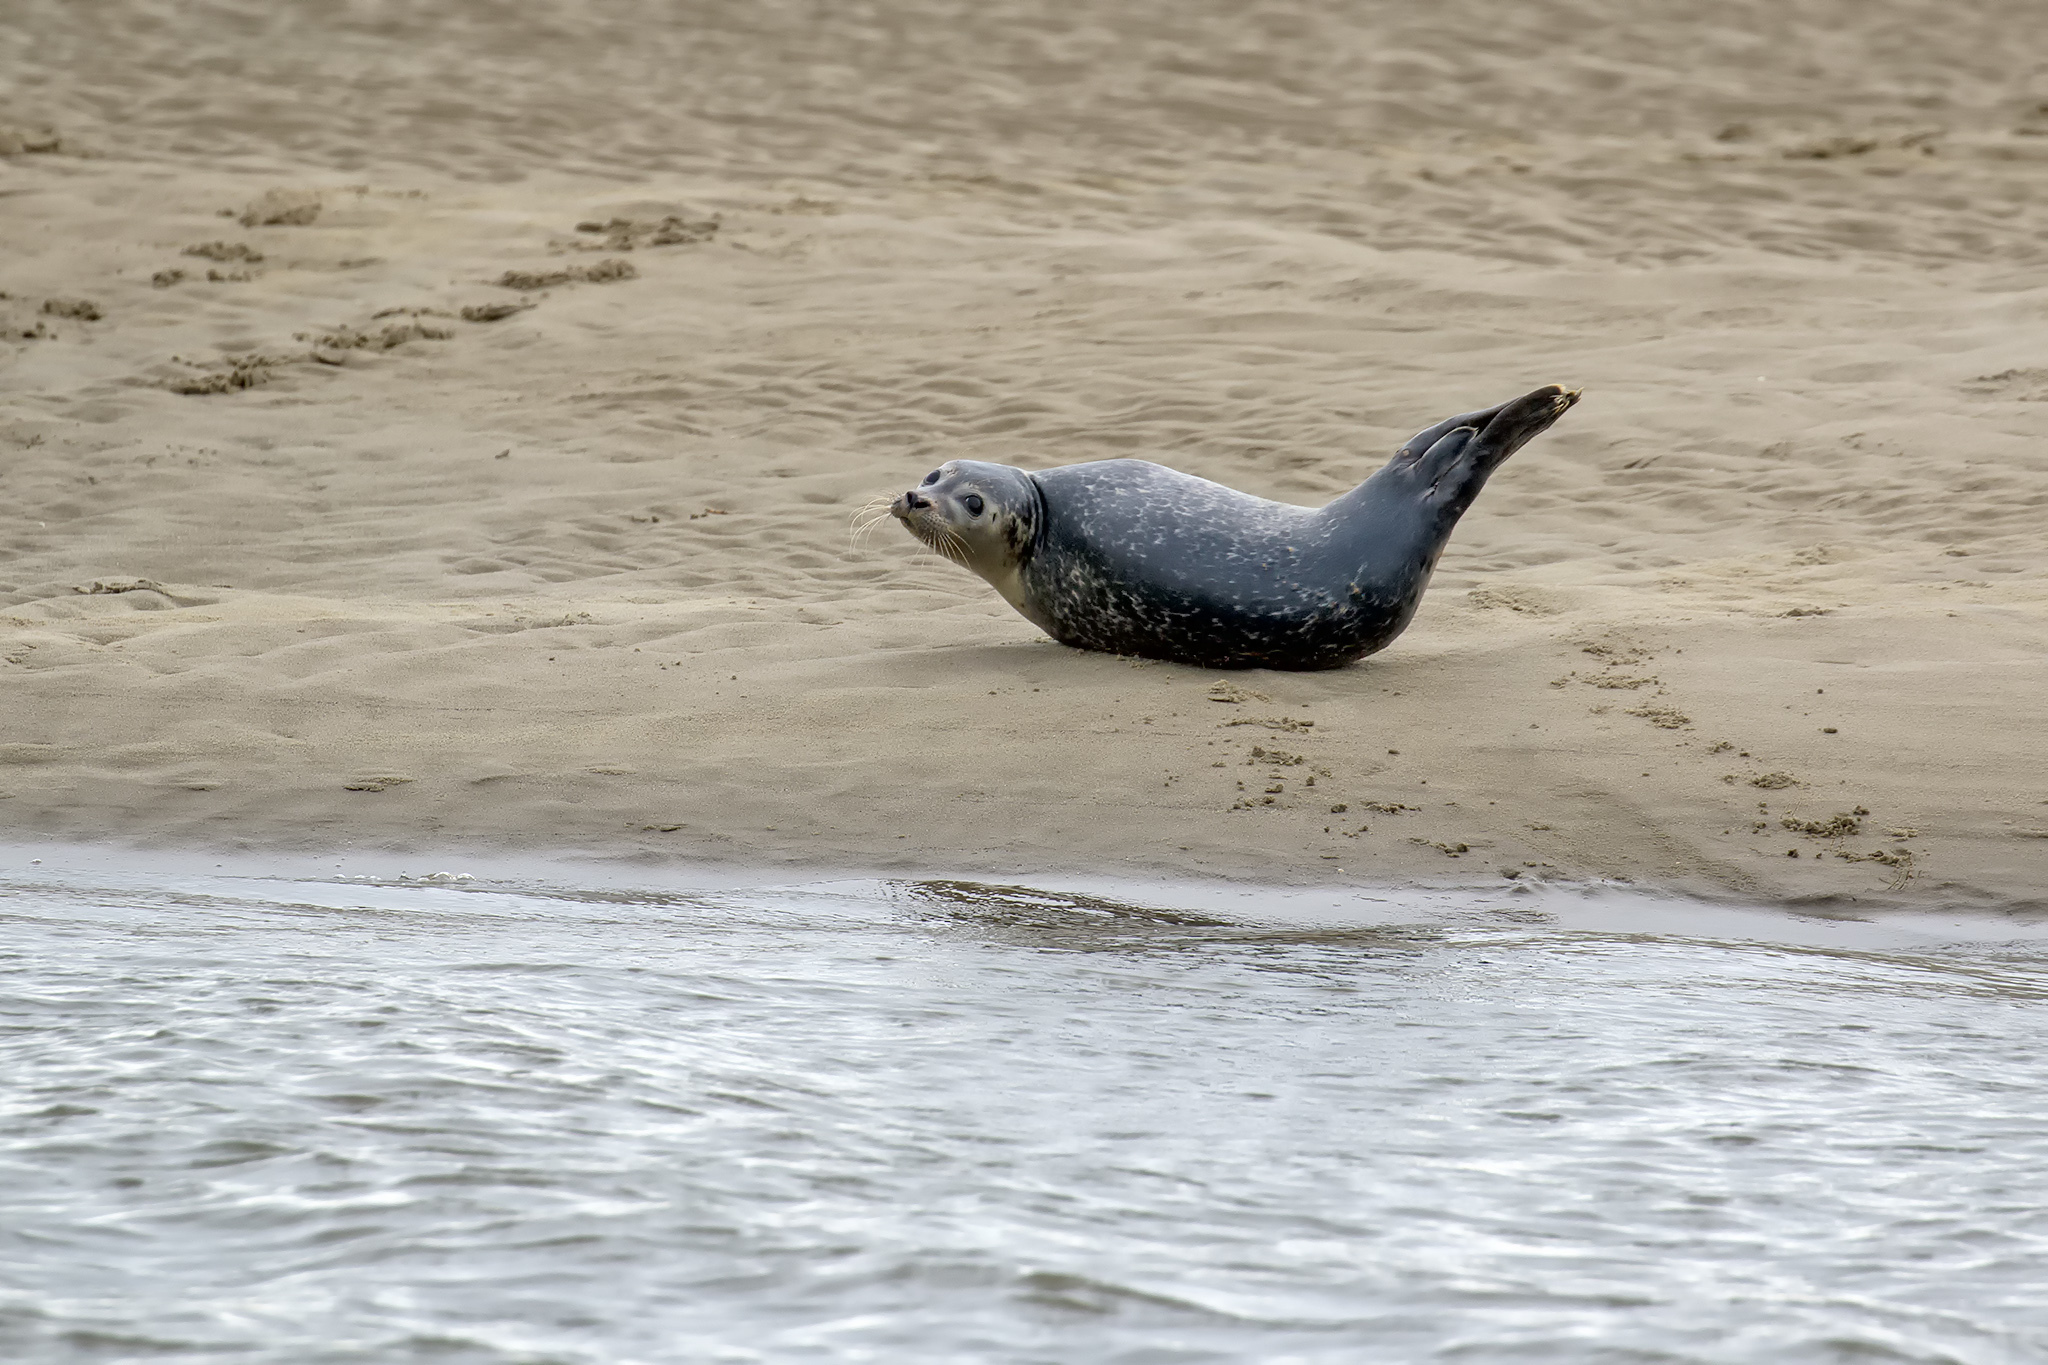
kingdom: Animalia
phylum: Chordata
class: Mammalia
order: Carnivora
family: Phocidae
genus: Phoca
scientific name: Phoca vitulina
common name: Harbor seal
